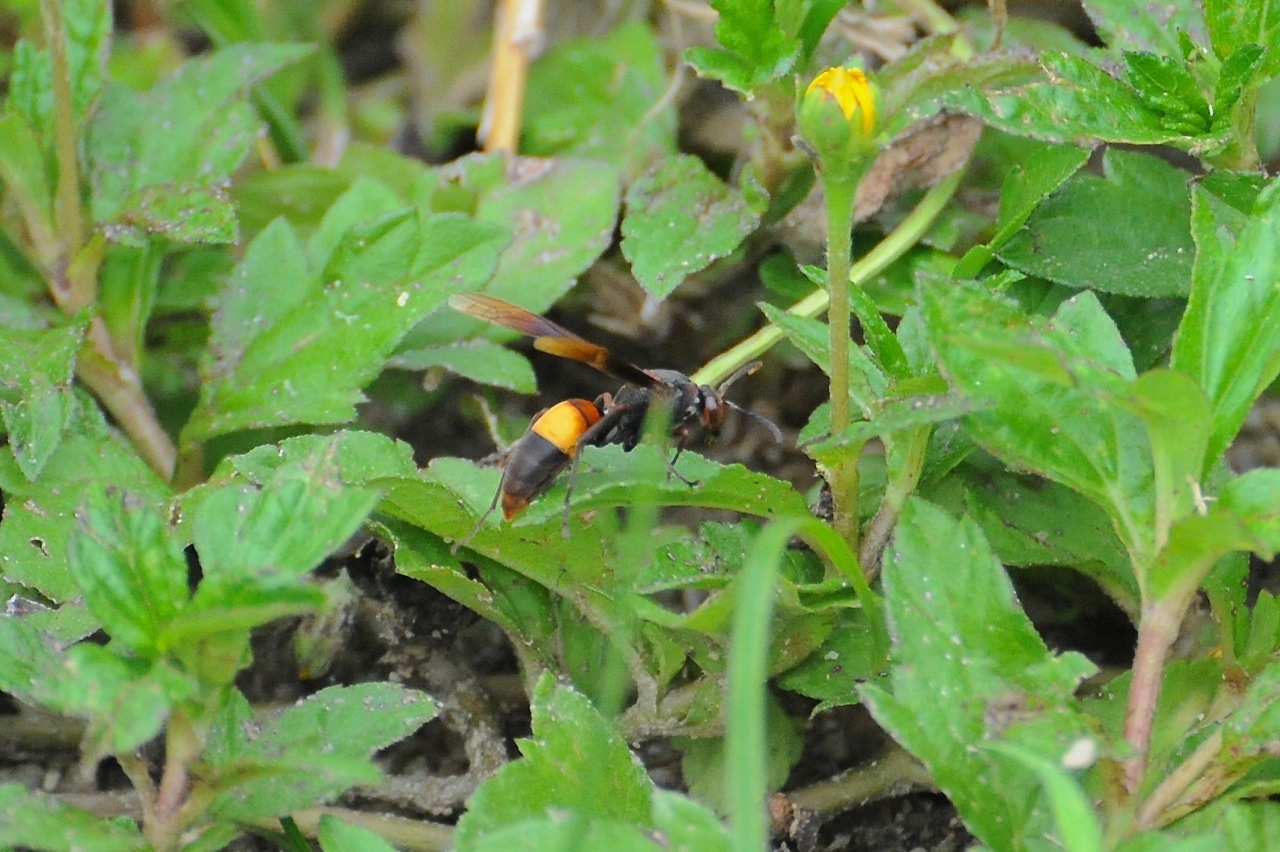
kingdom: Animalia
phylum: Arthropoda
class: Insecta
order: Hymenoptera
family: Eumenidae
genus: Polistes
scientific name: Polistes sagittarius
